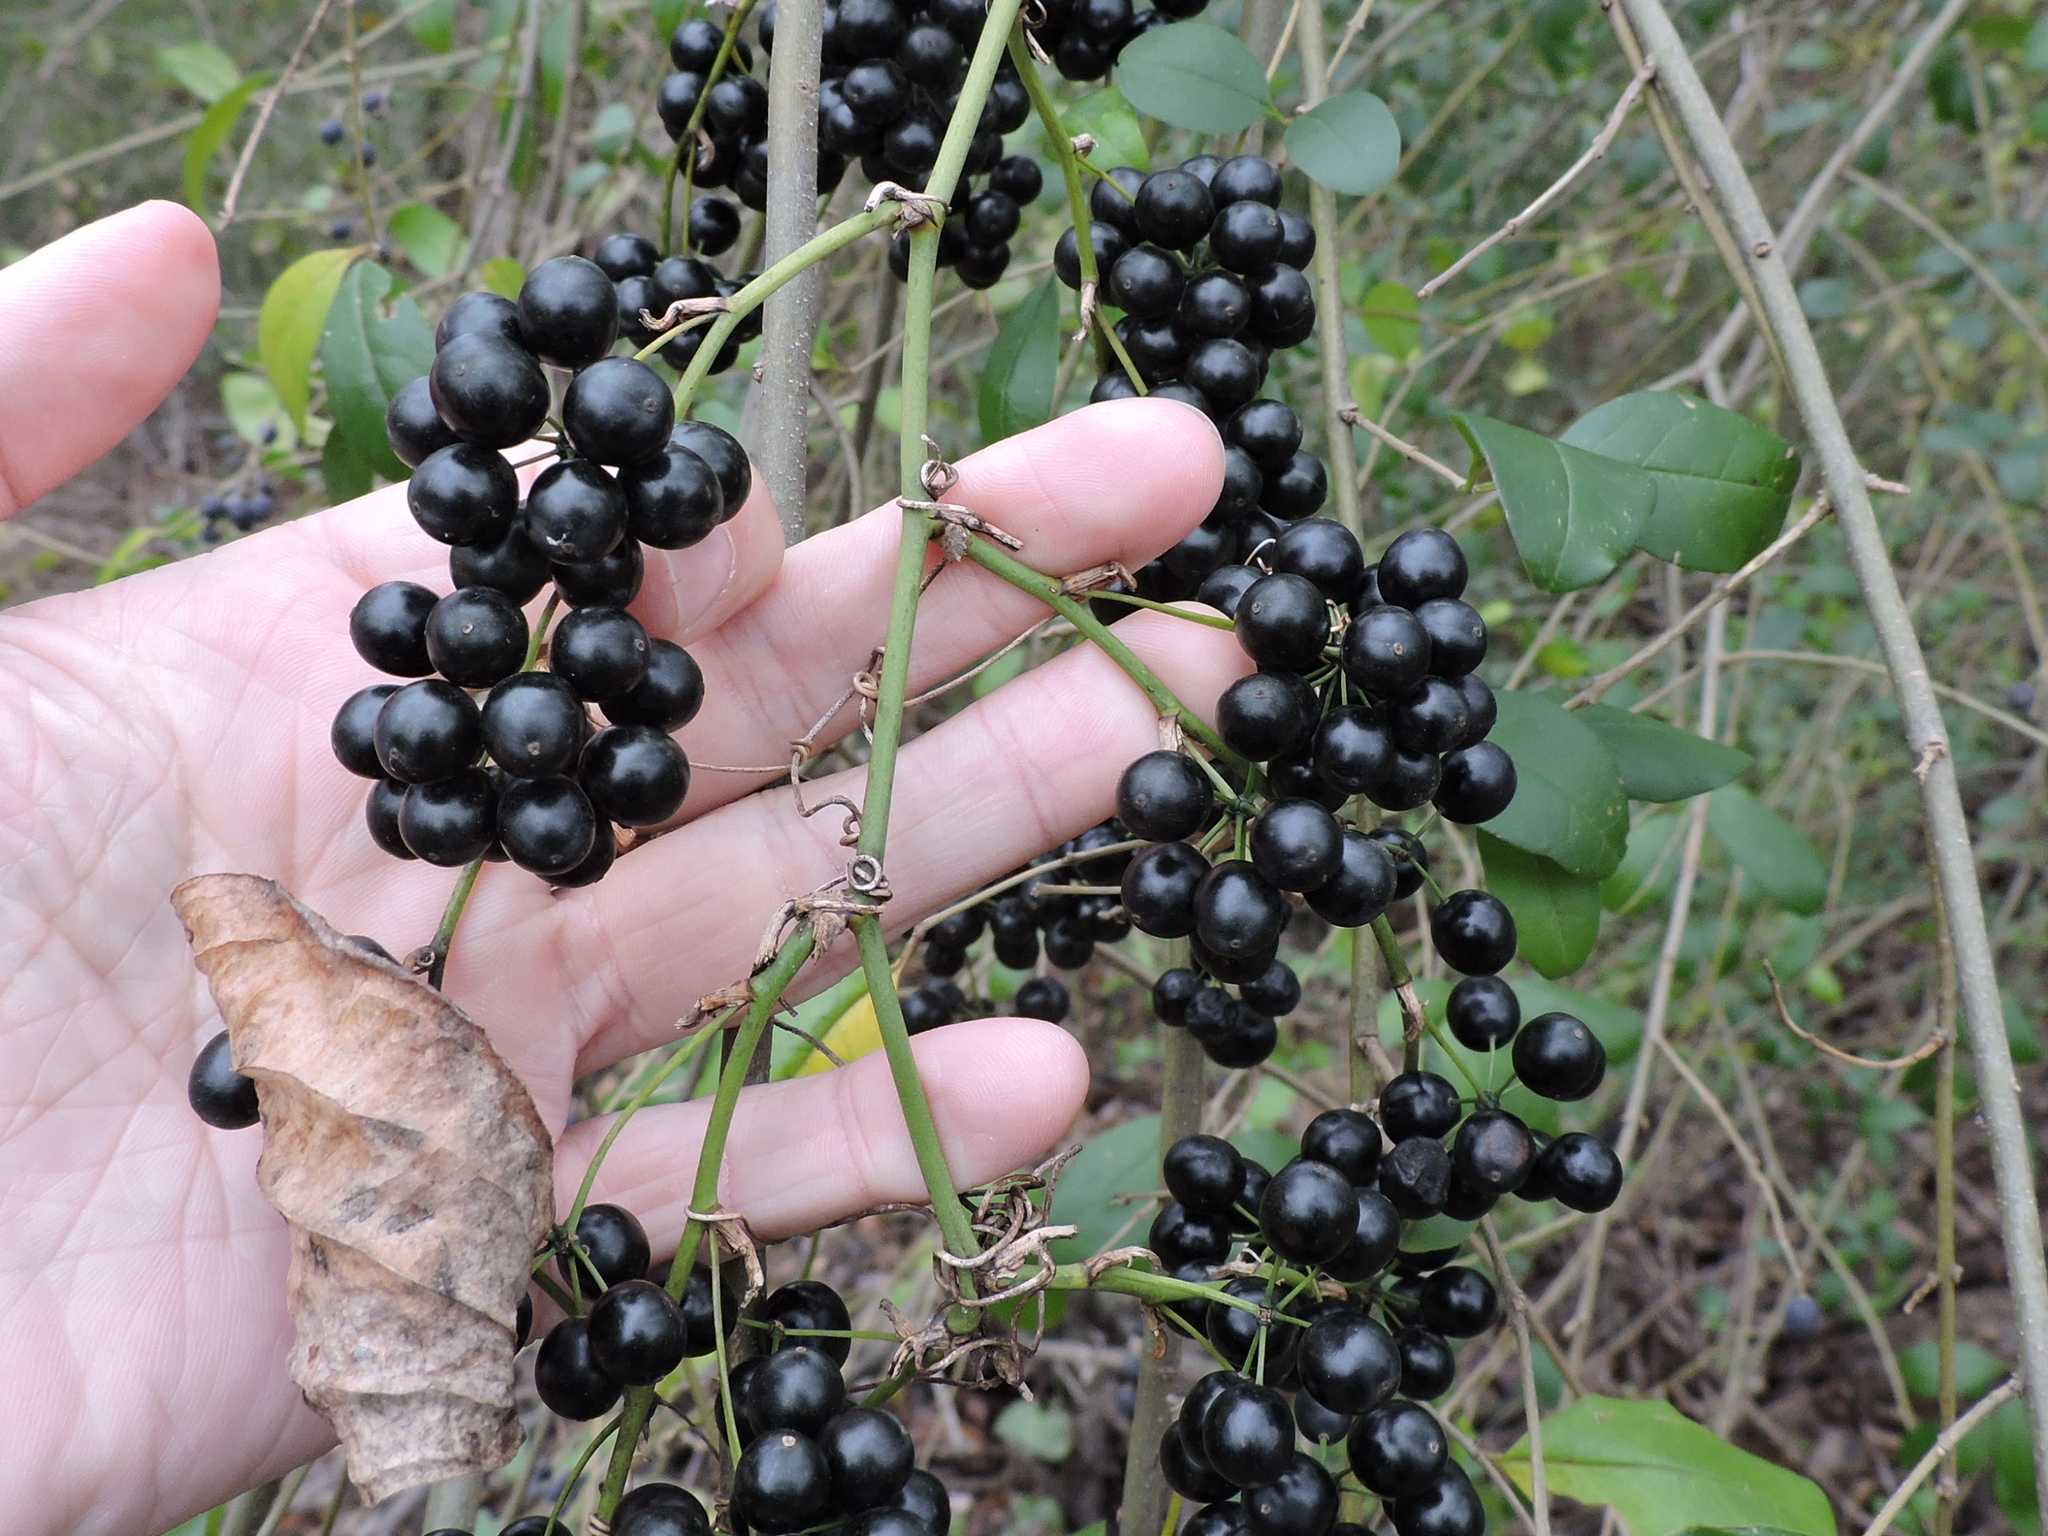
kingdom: Plantae
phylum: Tracheophyta
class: Liliopsida
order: Liliales
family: Smilacaceae
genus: Smilax
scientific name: Smilax tamnoides
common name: Hellfetter
